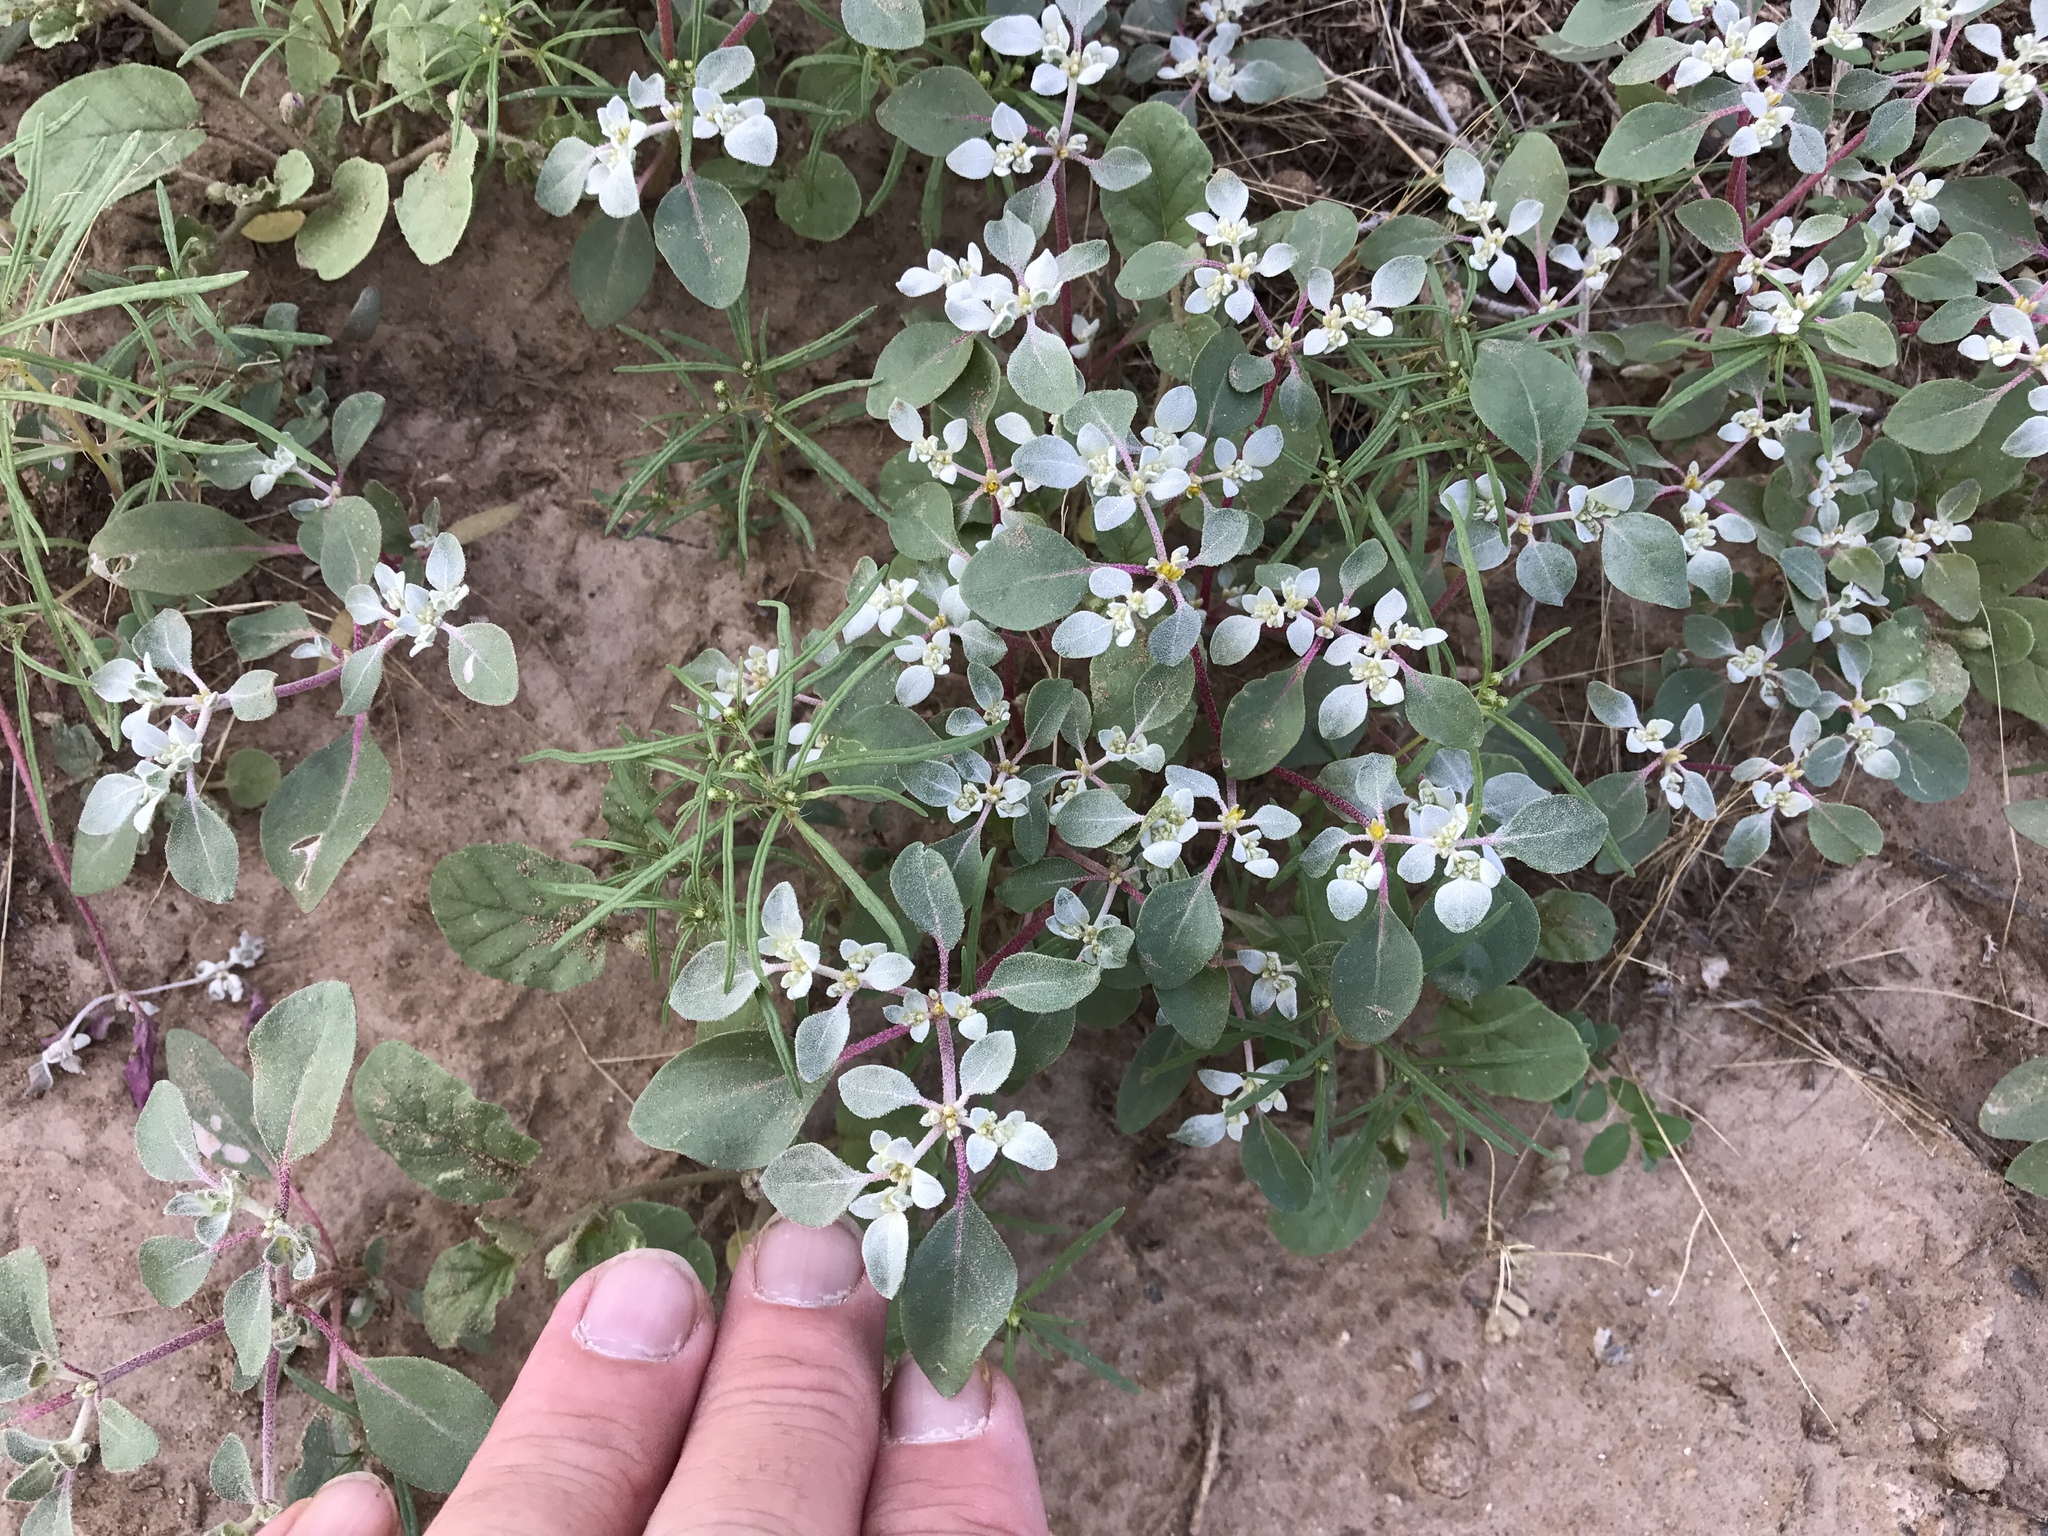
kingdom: Plantae
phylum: Tracheophyta
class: Magnoliopsida
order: Caryophyllales
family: Amaranthaceae
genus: Tidestromia
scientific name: Tidestromia lanuginosa
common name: Woolly tidestromia
